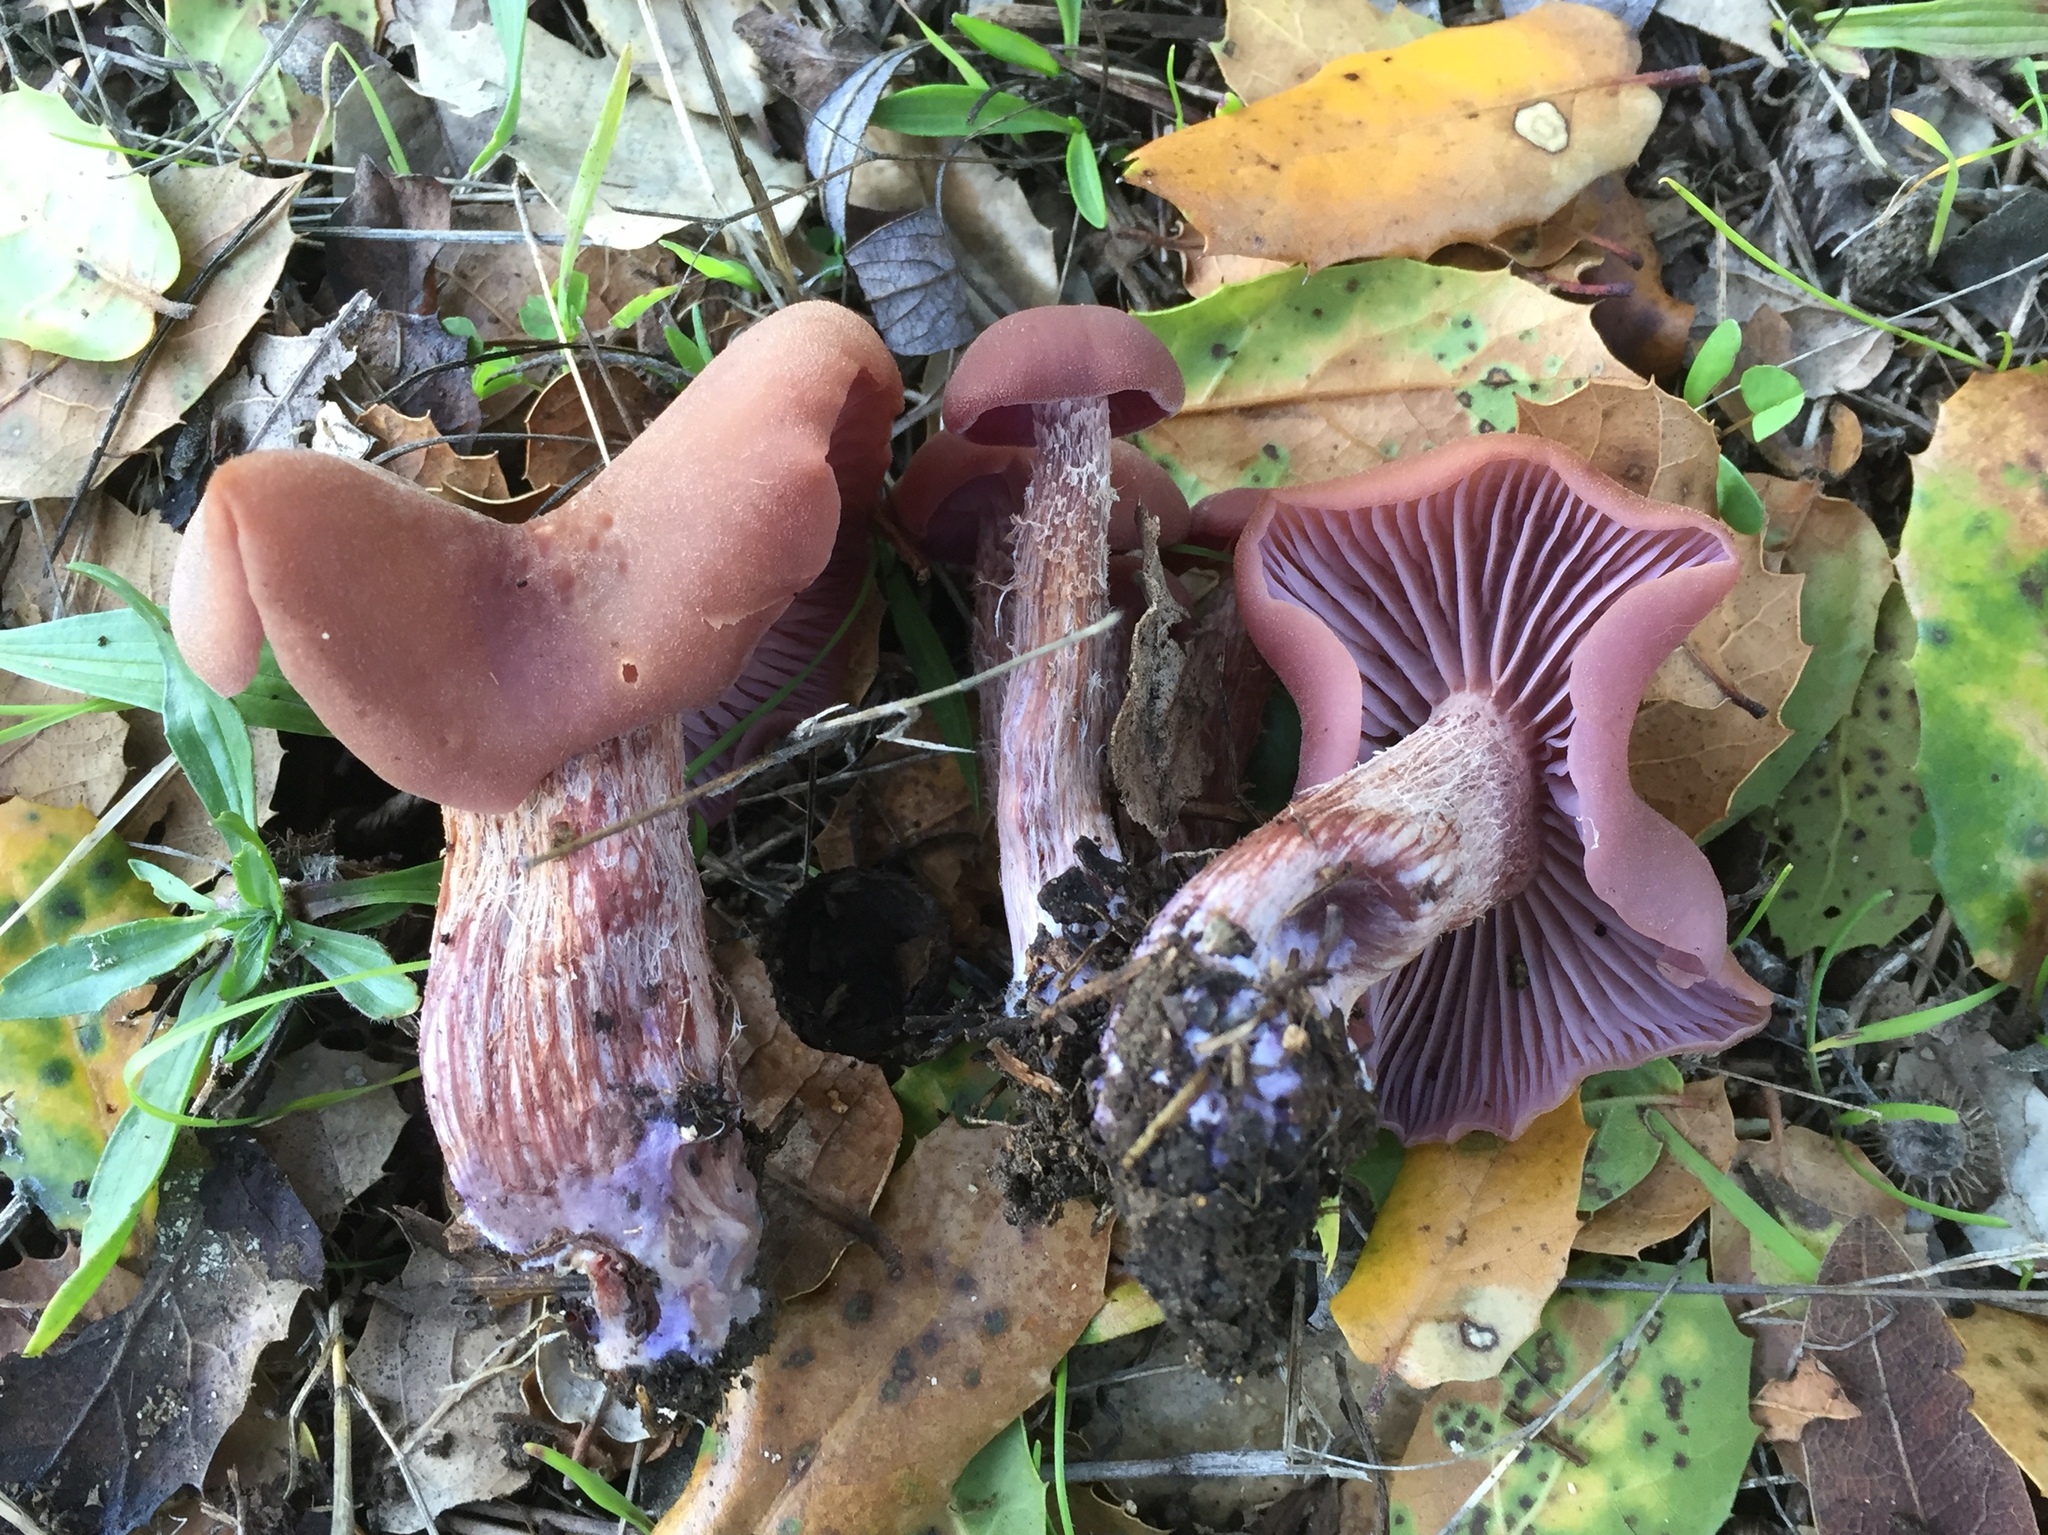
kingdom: Fungi
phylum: Basidiomycota
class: Agaricomycetes
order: Agaricales
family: Hydnangiaceae
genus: Laccaria
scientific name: Laccaria amethysteo-occidentalis
